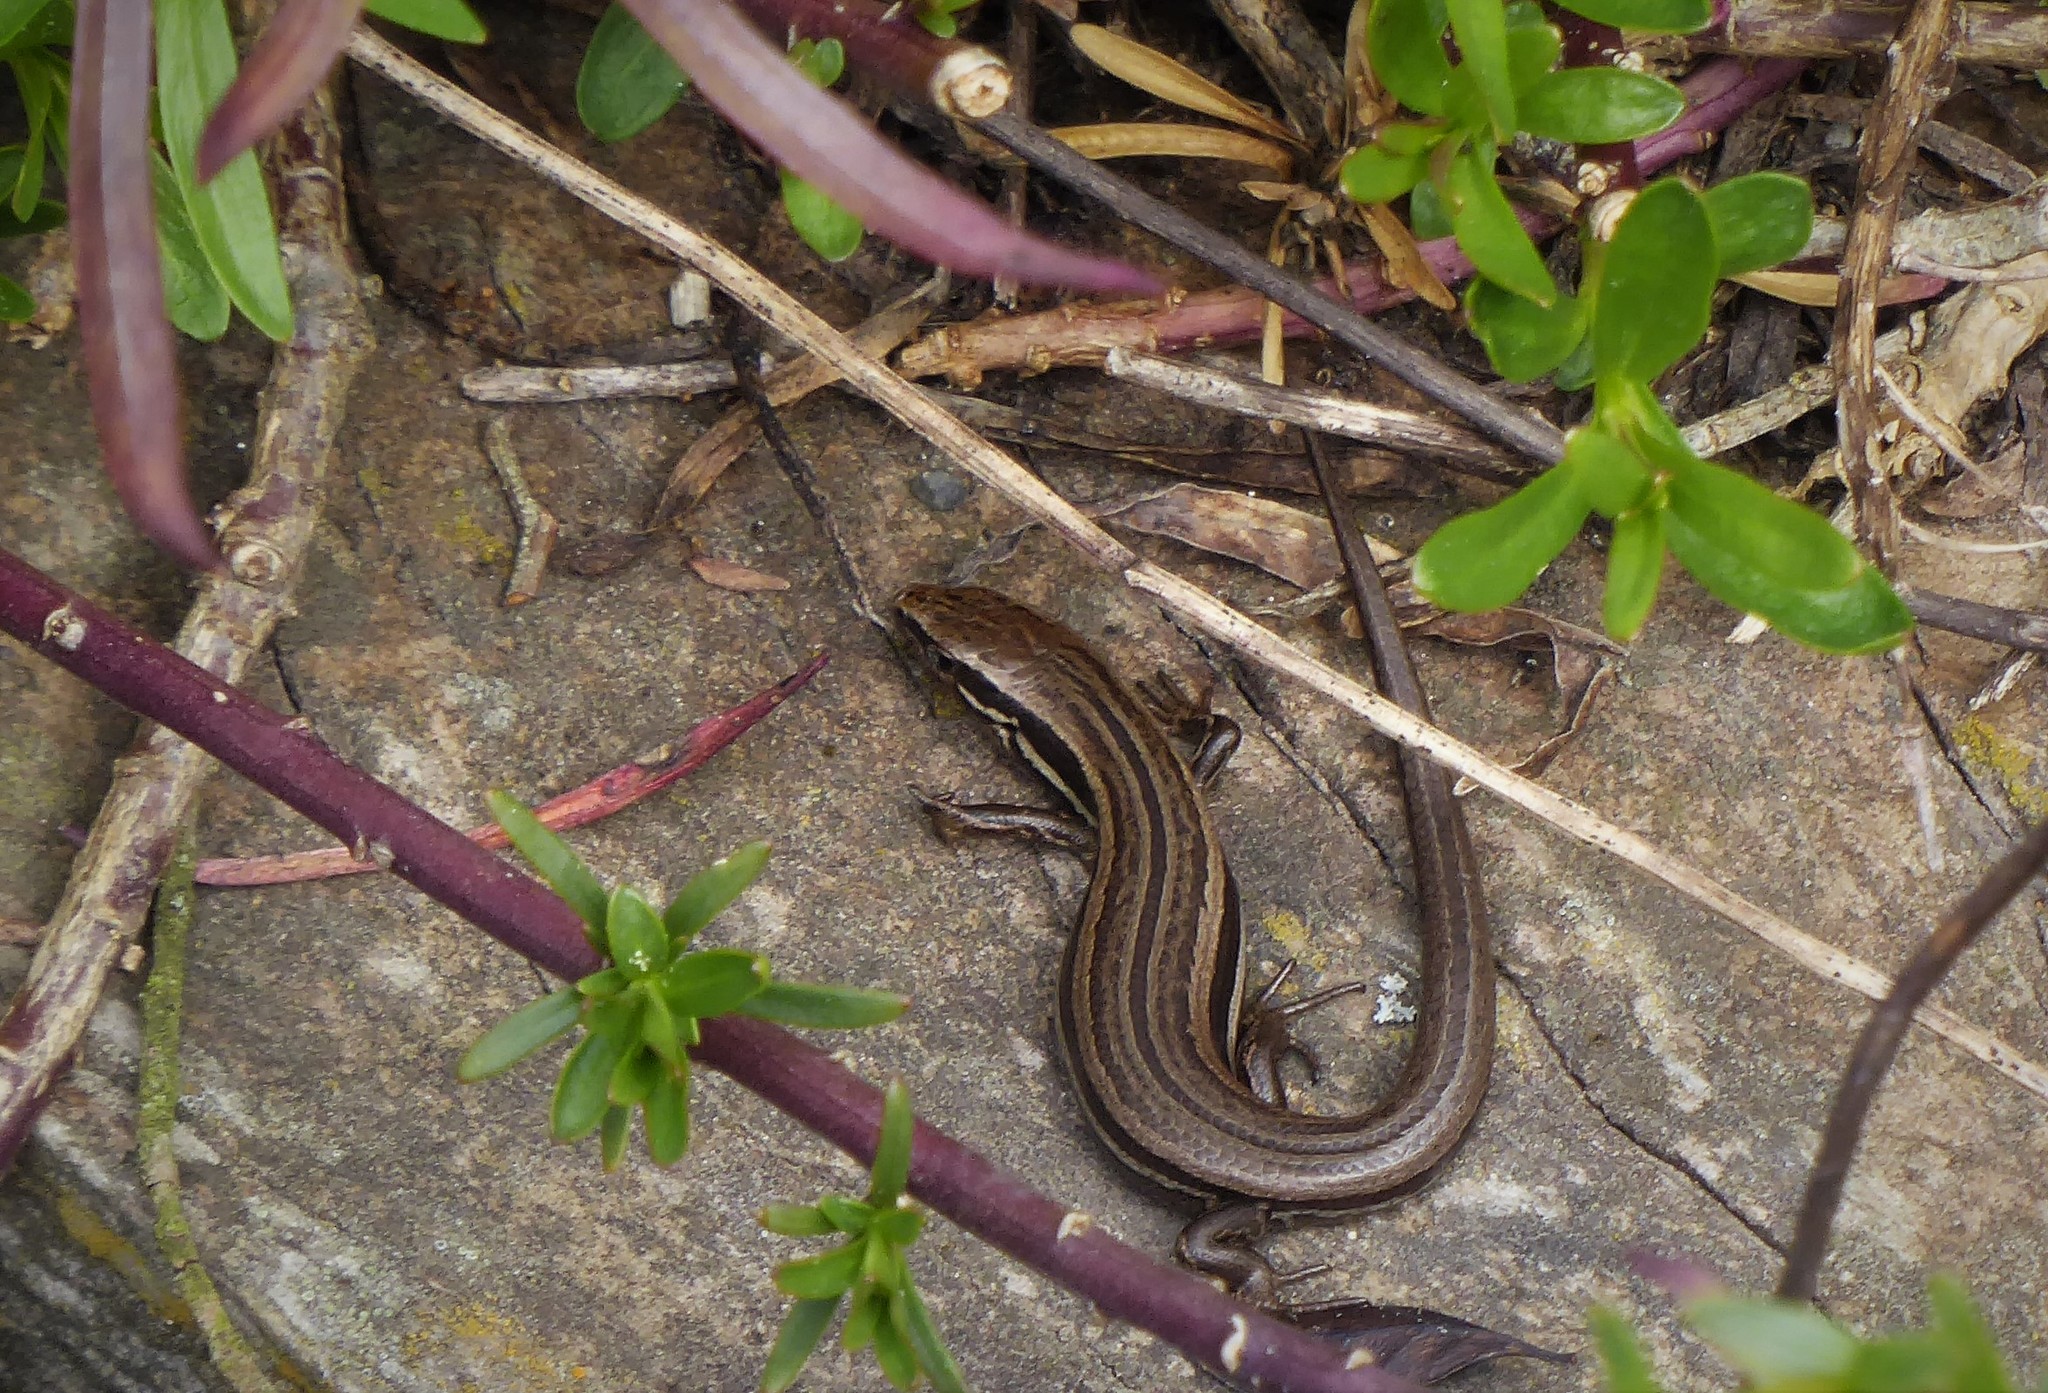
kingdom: Animalia
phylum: Chordata
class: Squamata
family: Scincidae
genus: Oligosoma
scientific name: Oligosoma polychroma
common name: Common new zealand skink
